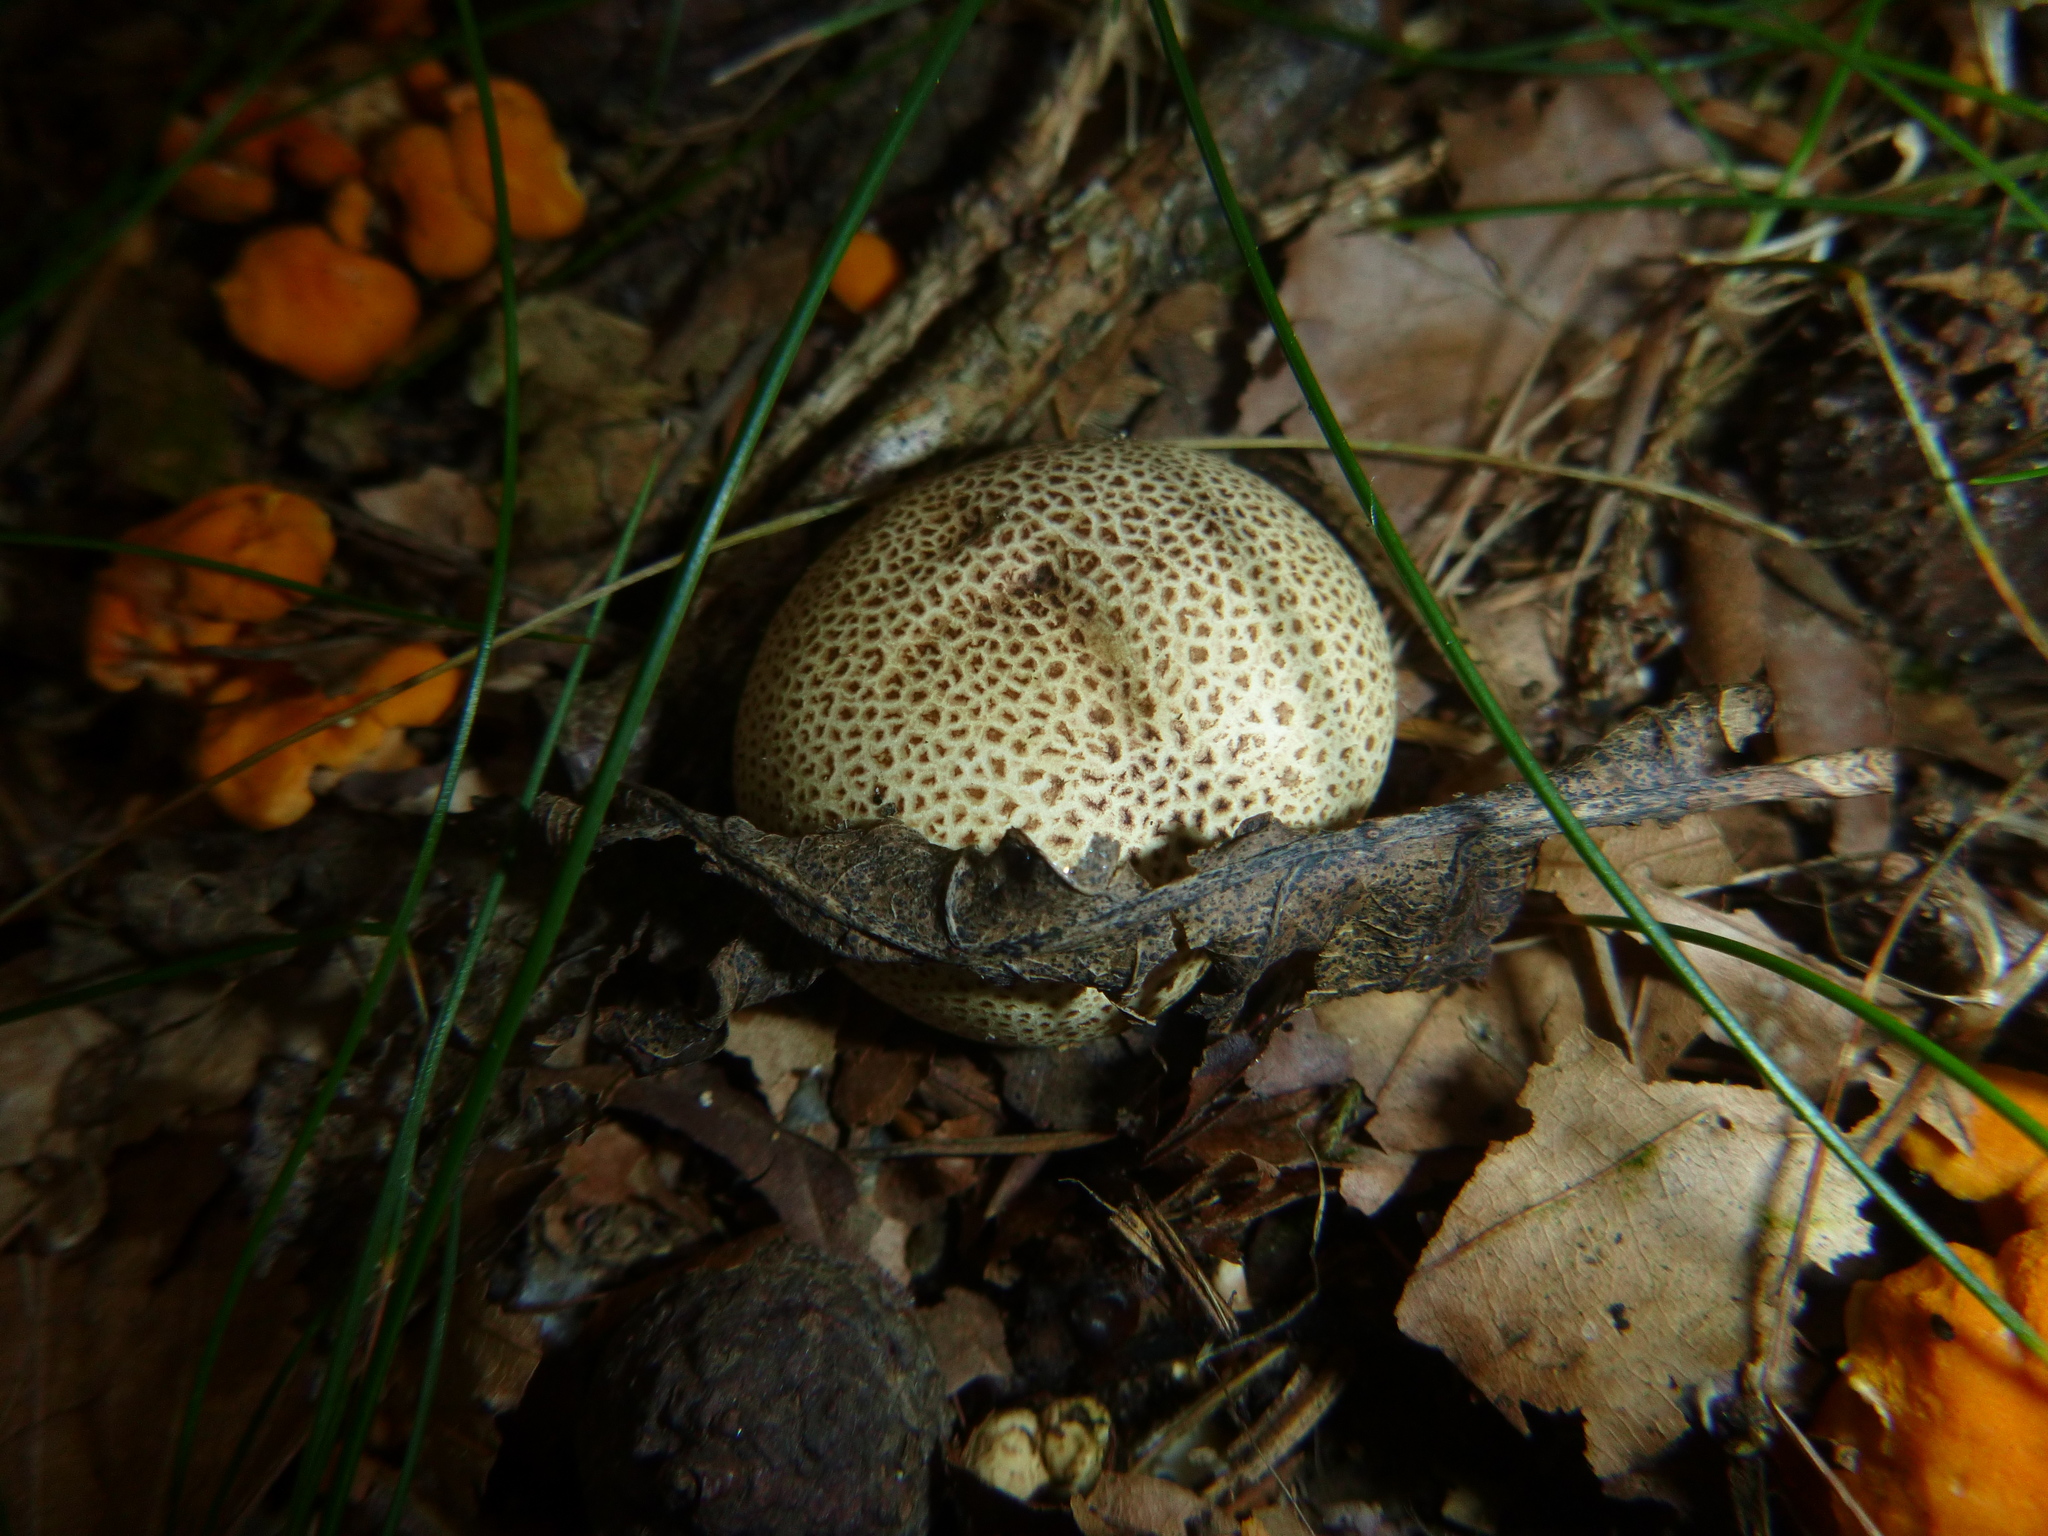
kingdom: Fungi
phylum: Basidiomycota
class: Agaricomycetes
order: Boletales
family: Sclerodermataceae
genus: Scleroderma
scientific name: Scleroderma citrinum
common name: Common earthball
